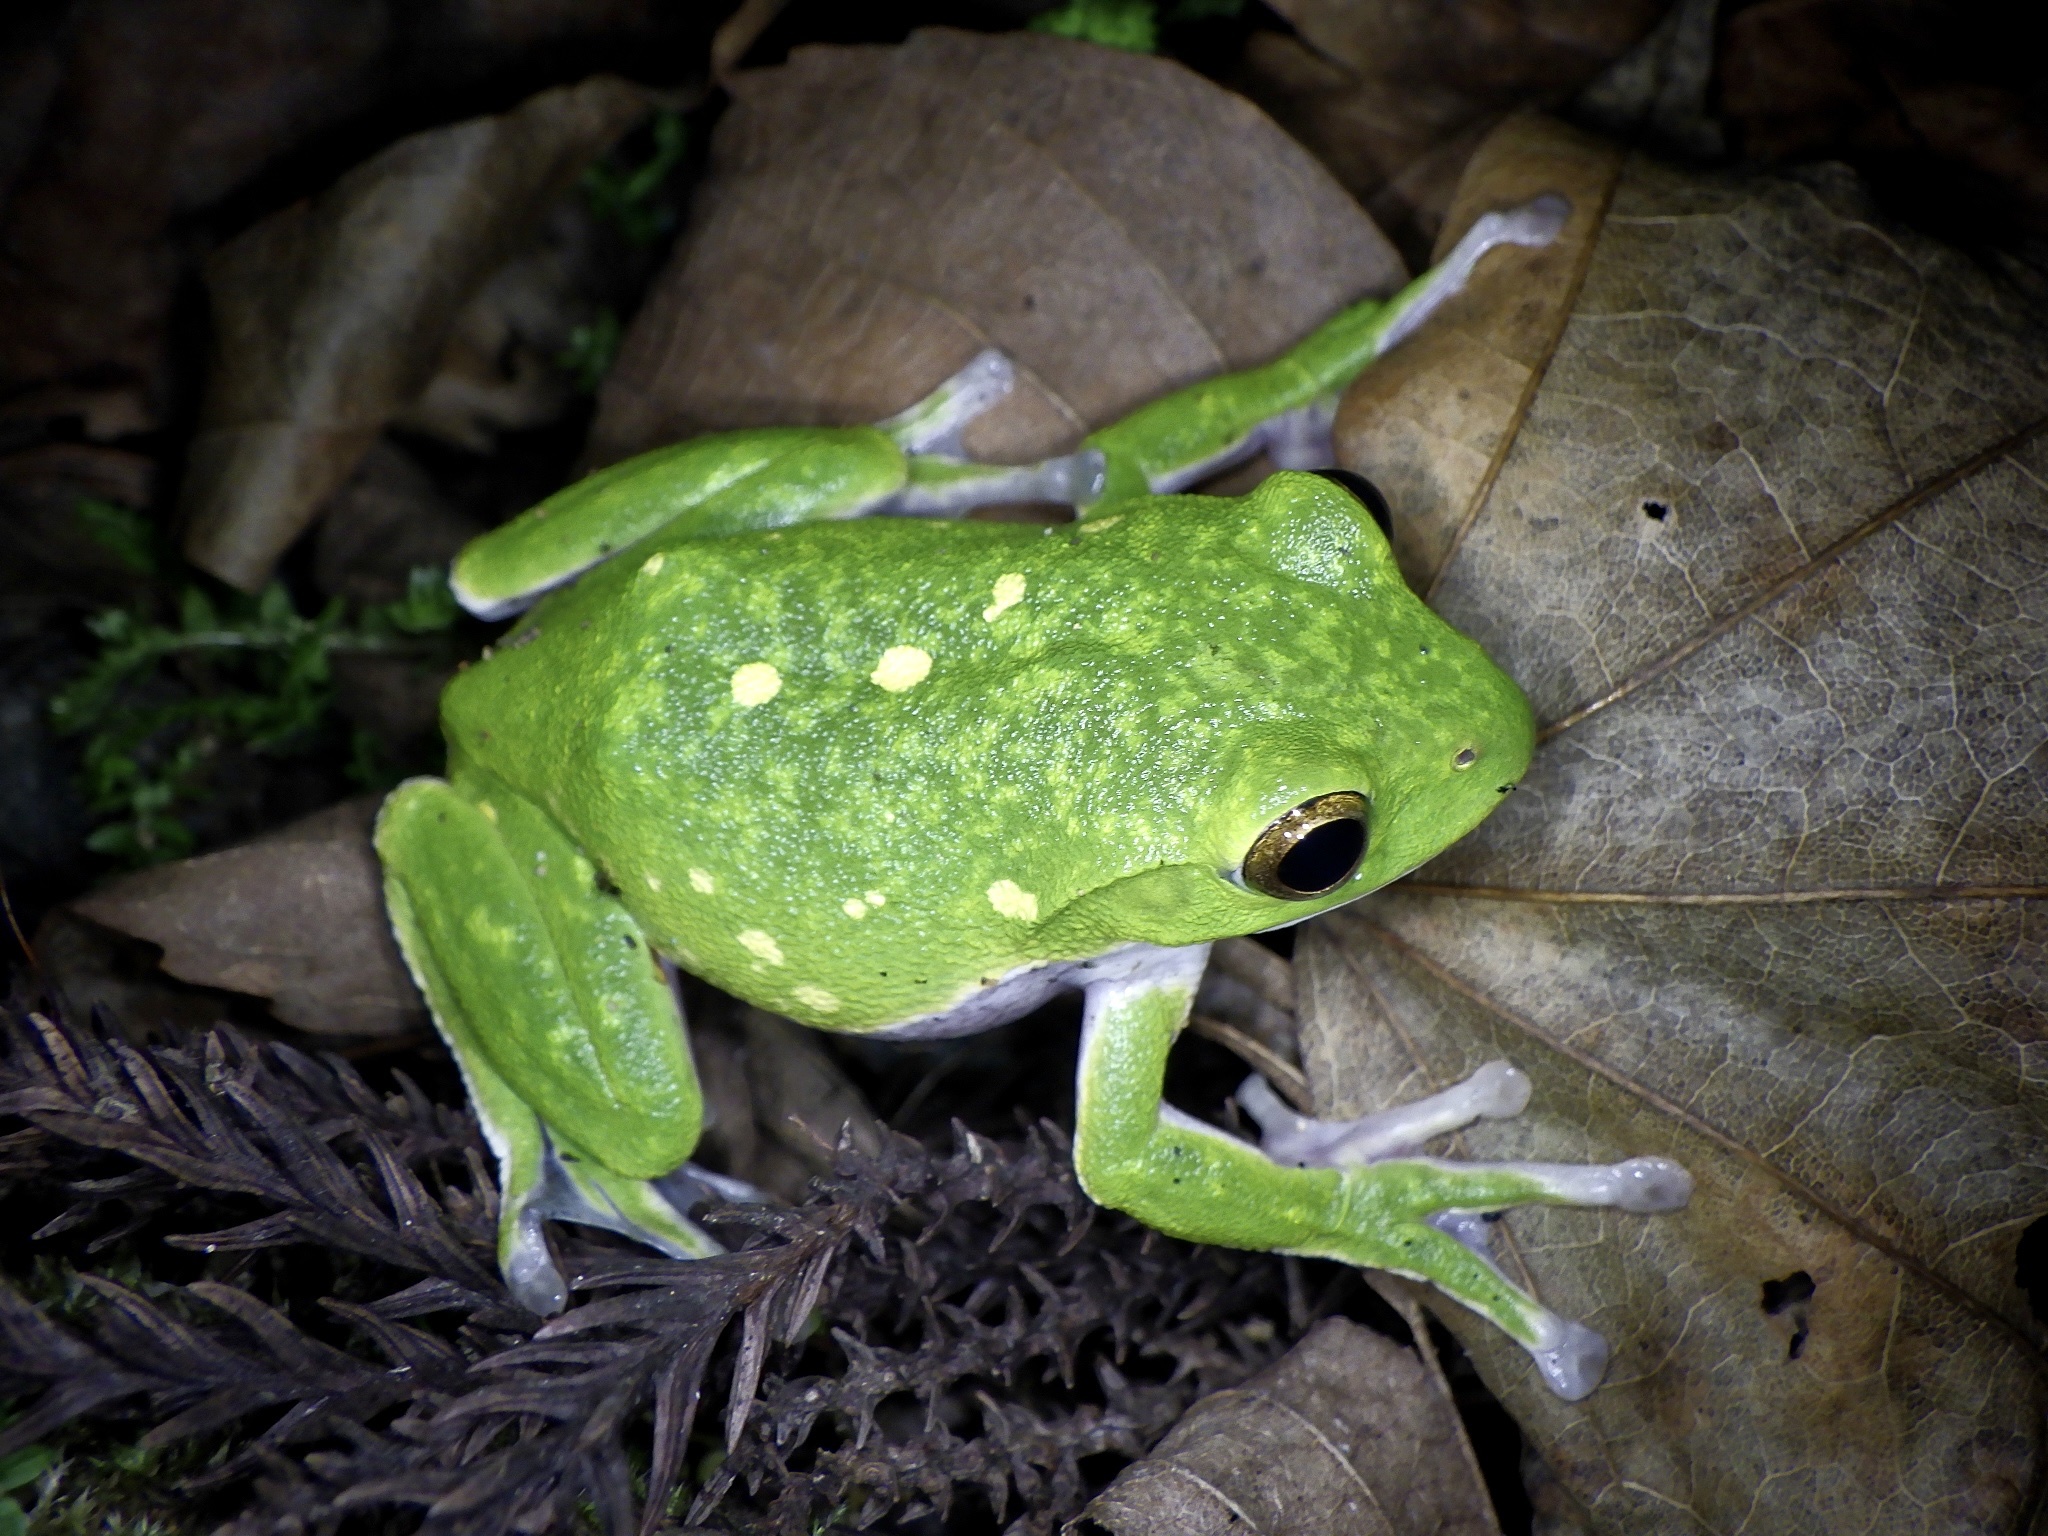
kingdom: Animalia
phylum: Chordata
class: Amphibia
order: Anura
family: Rhacophoridae
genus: Zhangixalus
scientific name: Zhangixalus schlegelii
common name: Japanese gliding frog
